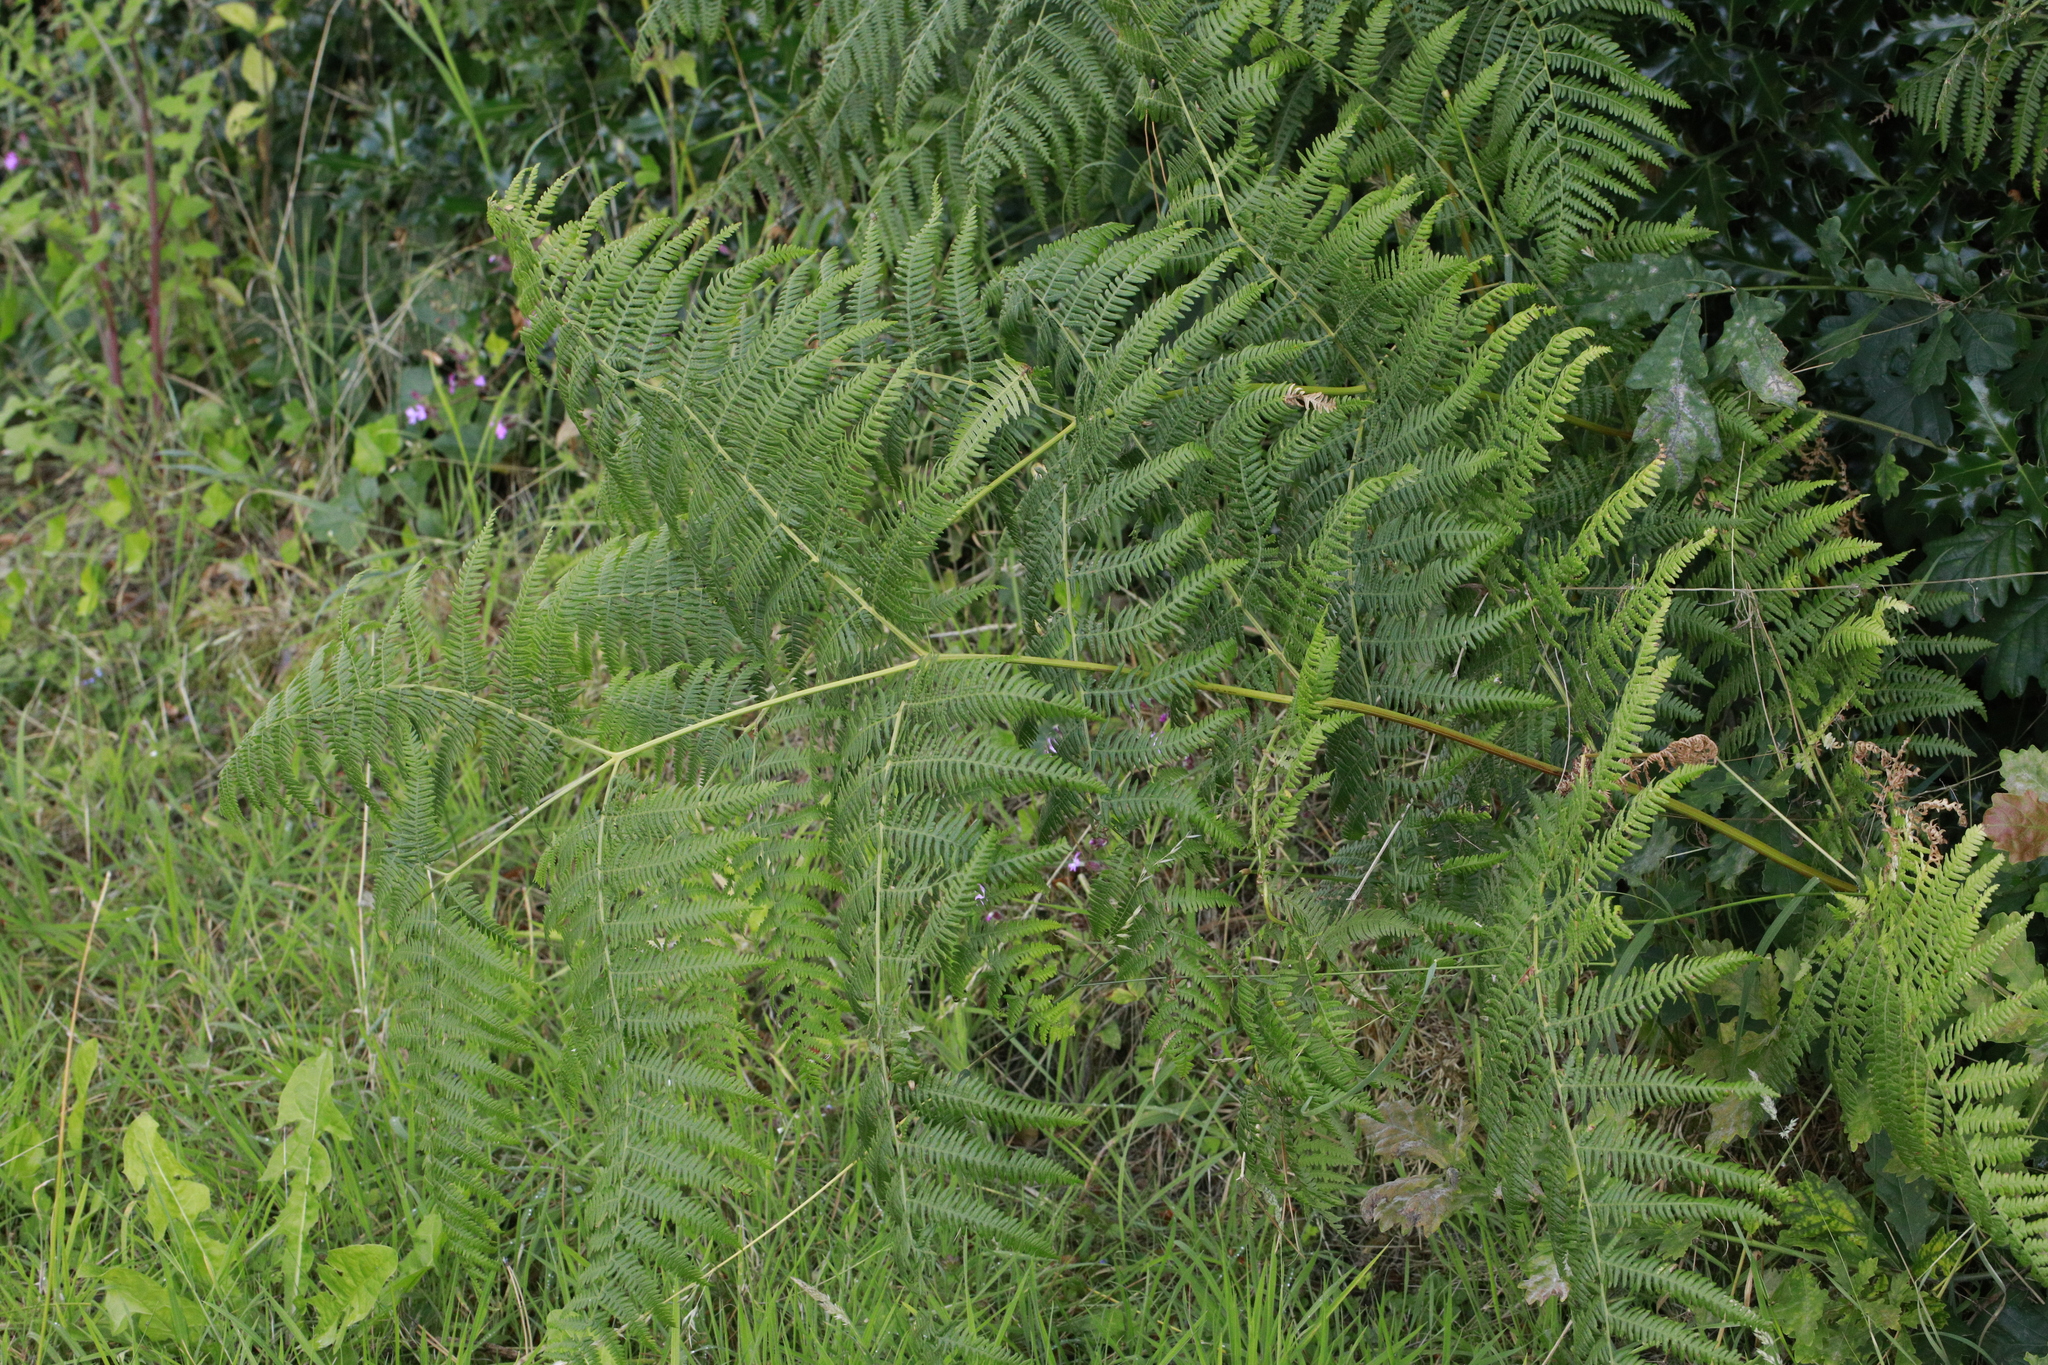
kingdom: Plantae
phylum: Tracheophyta
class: Polypodiopsida
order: Polypodiales
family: Dennstaedtiaceae
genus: Pteridium
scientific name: Pteridium aquilinum
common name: Bracken
